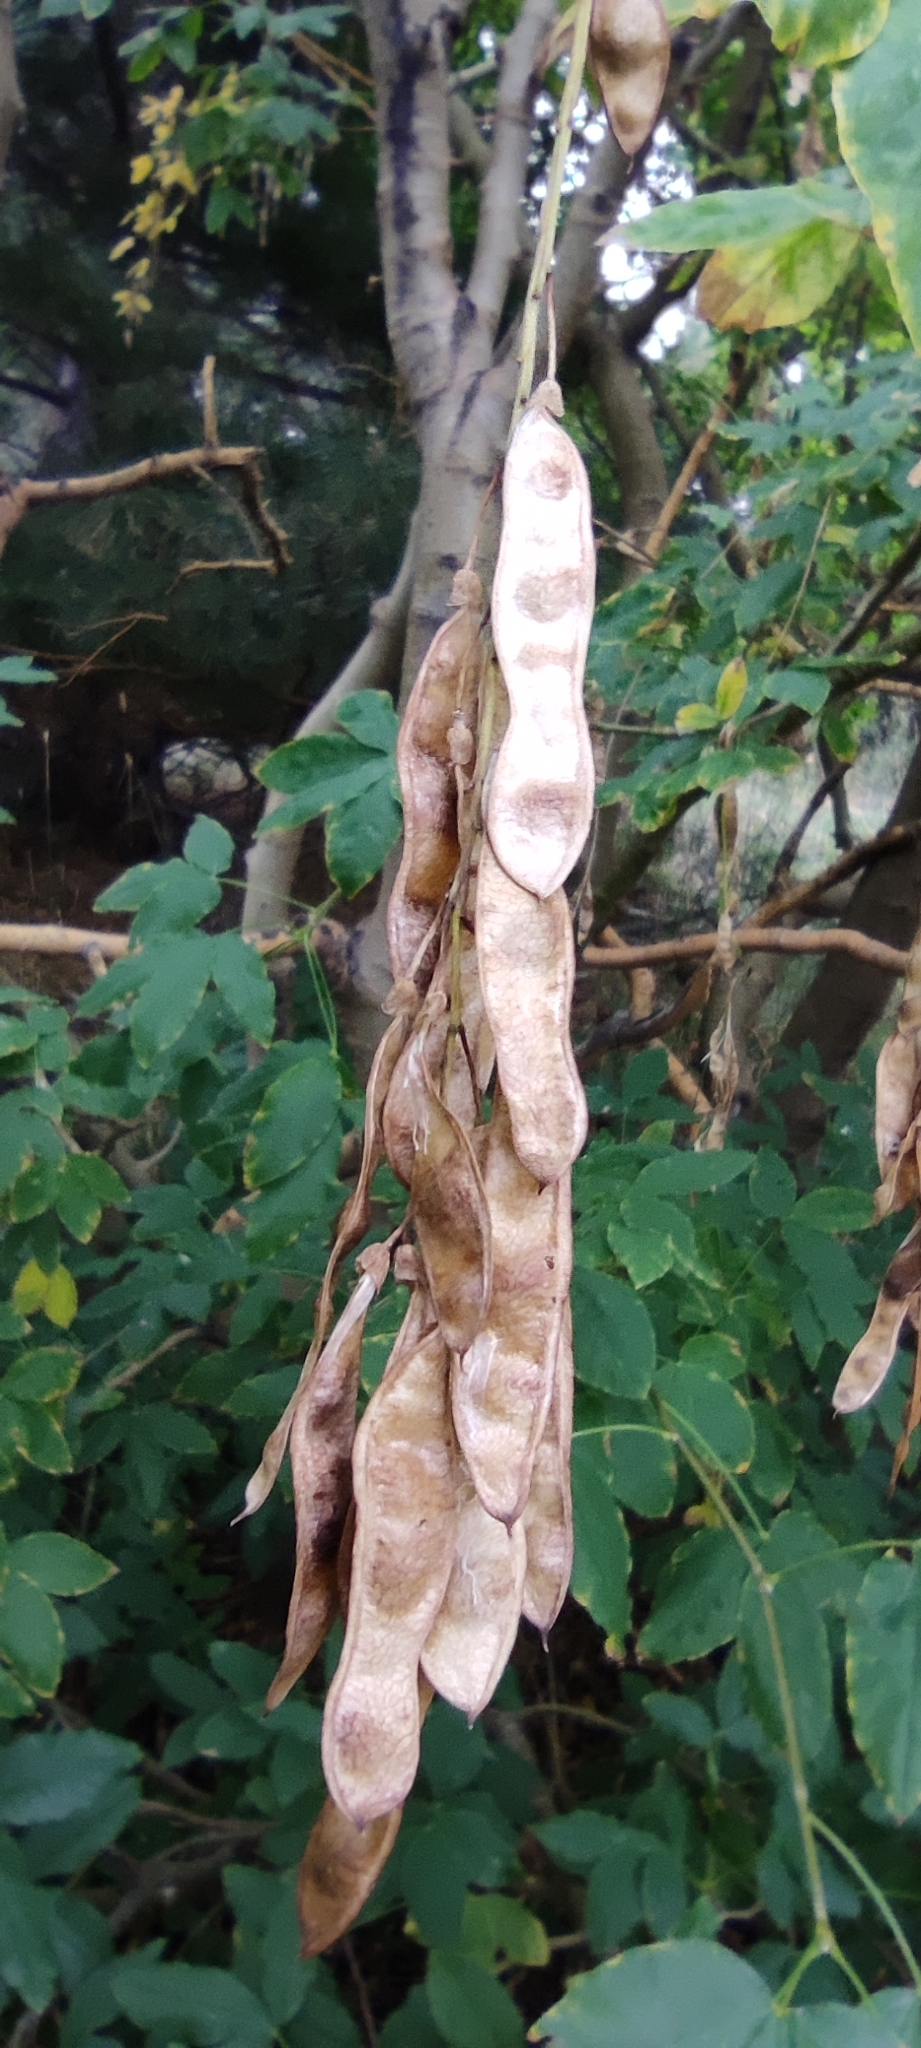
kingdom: Plantae
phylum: Tracheophyta
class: Magnoliopsida
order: Fabales
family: Fabaceae
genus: Laburnum
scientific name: Laburnum anagyroides
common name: Laburnum
